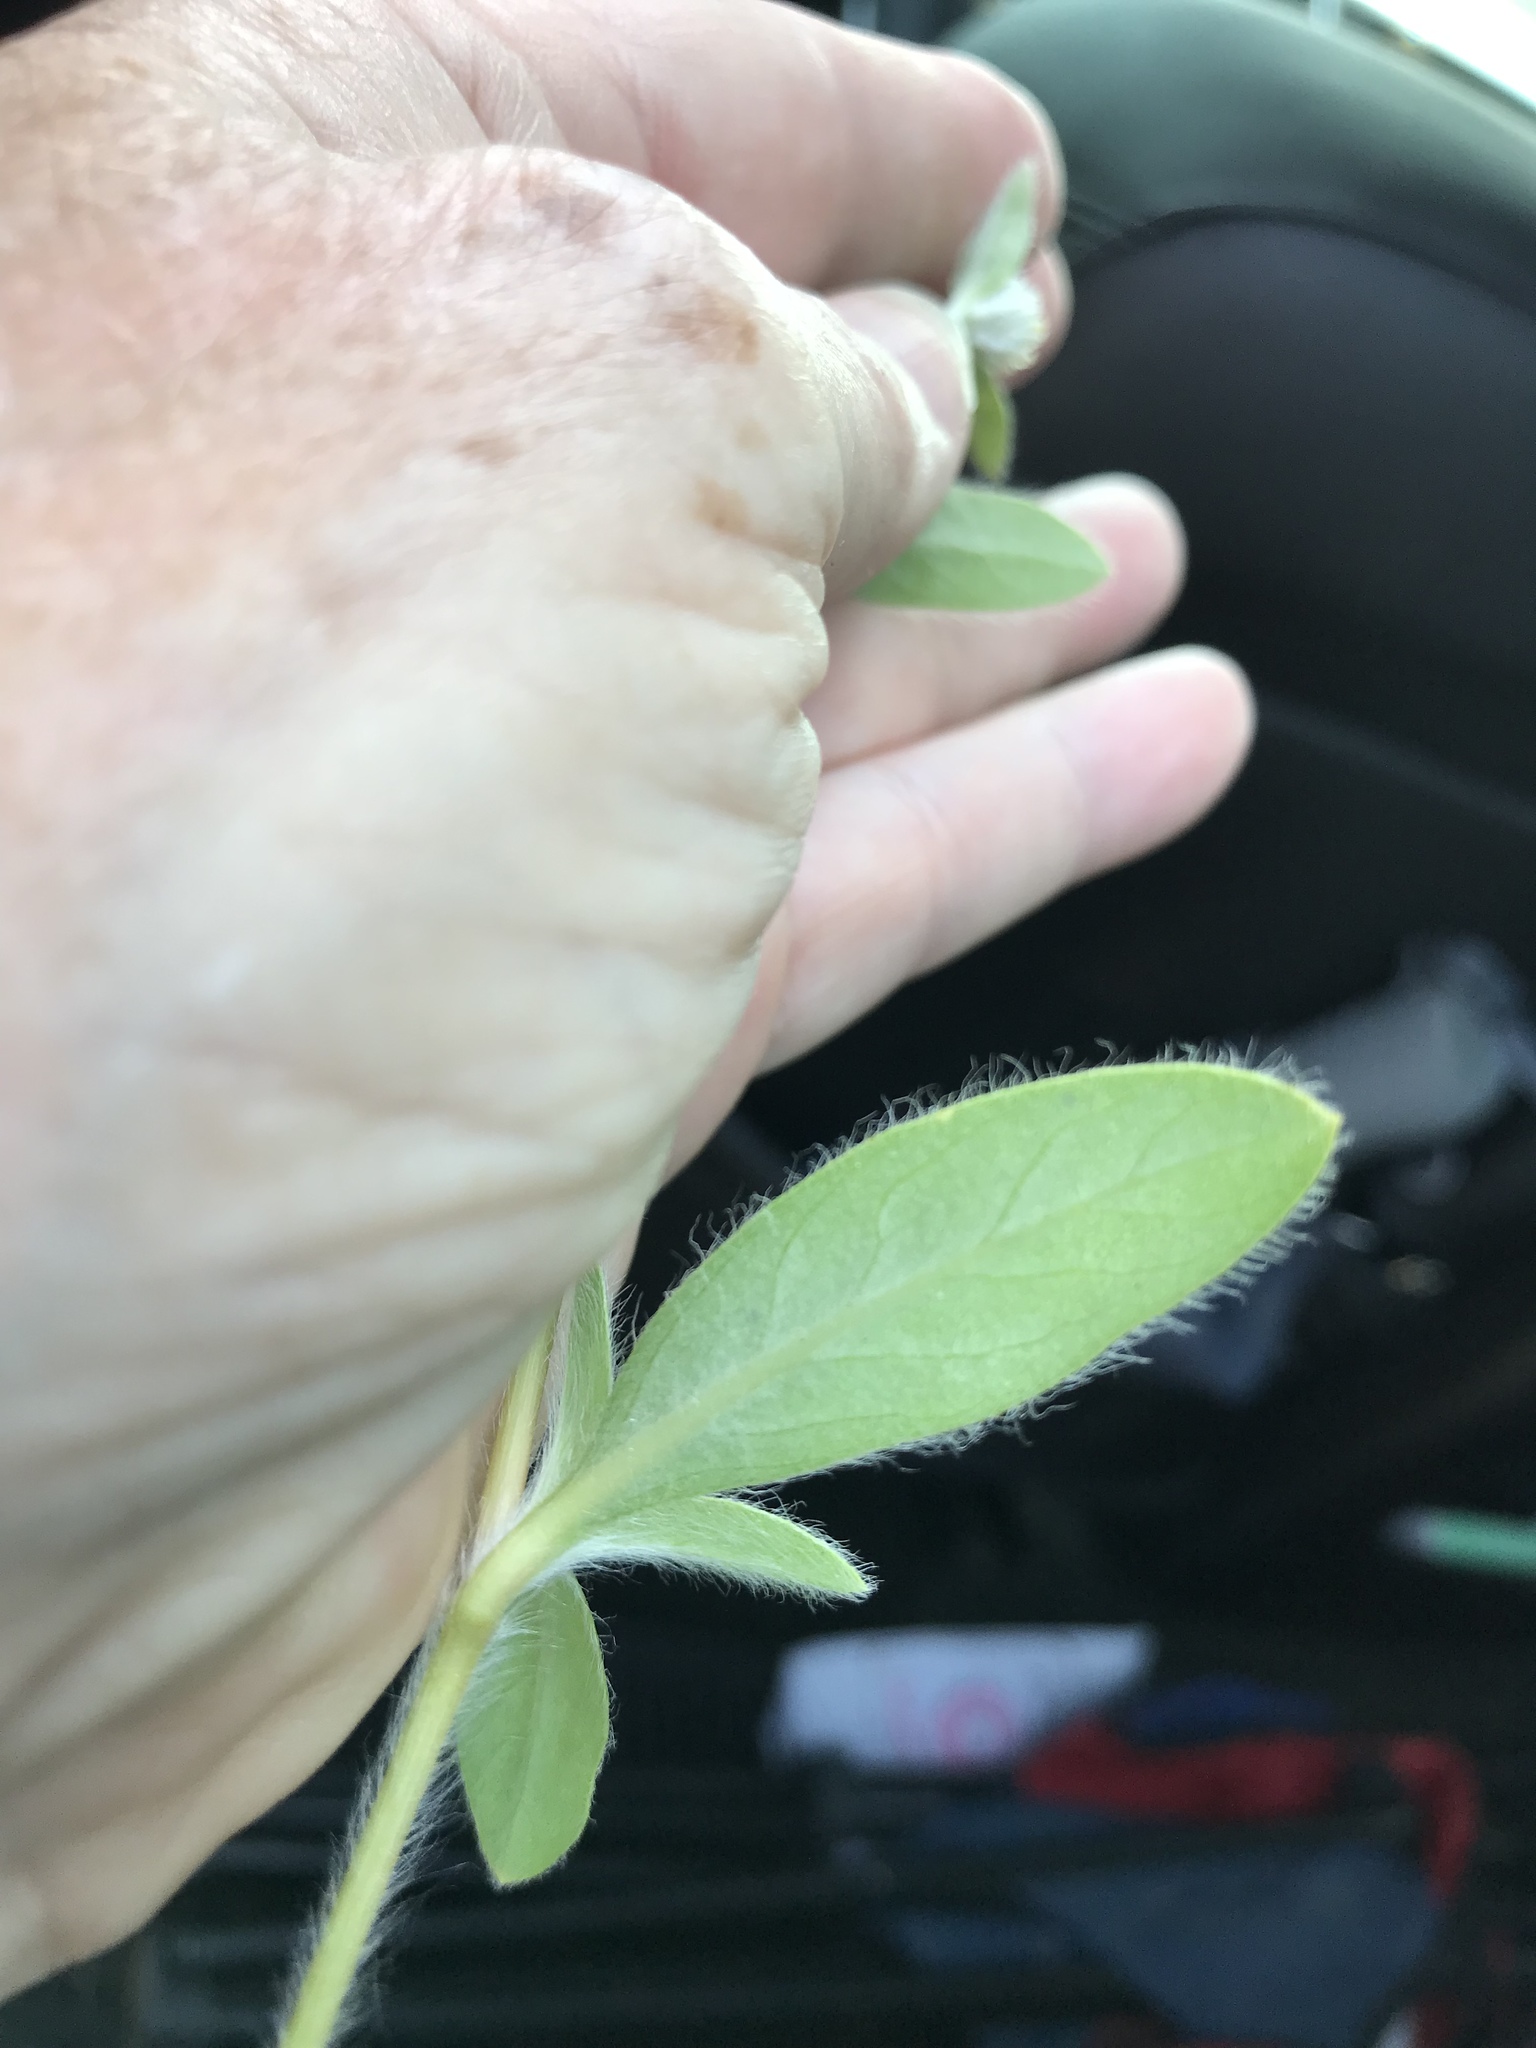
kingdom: Plantae
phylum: Tracheophyta
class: Magnoliopsida
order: Caryophyllales
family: Amaranthaceae
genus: Gomphrena
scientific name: Gomphrena serrata
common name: Arrasa con todo
